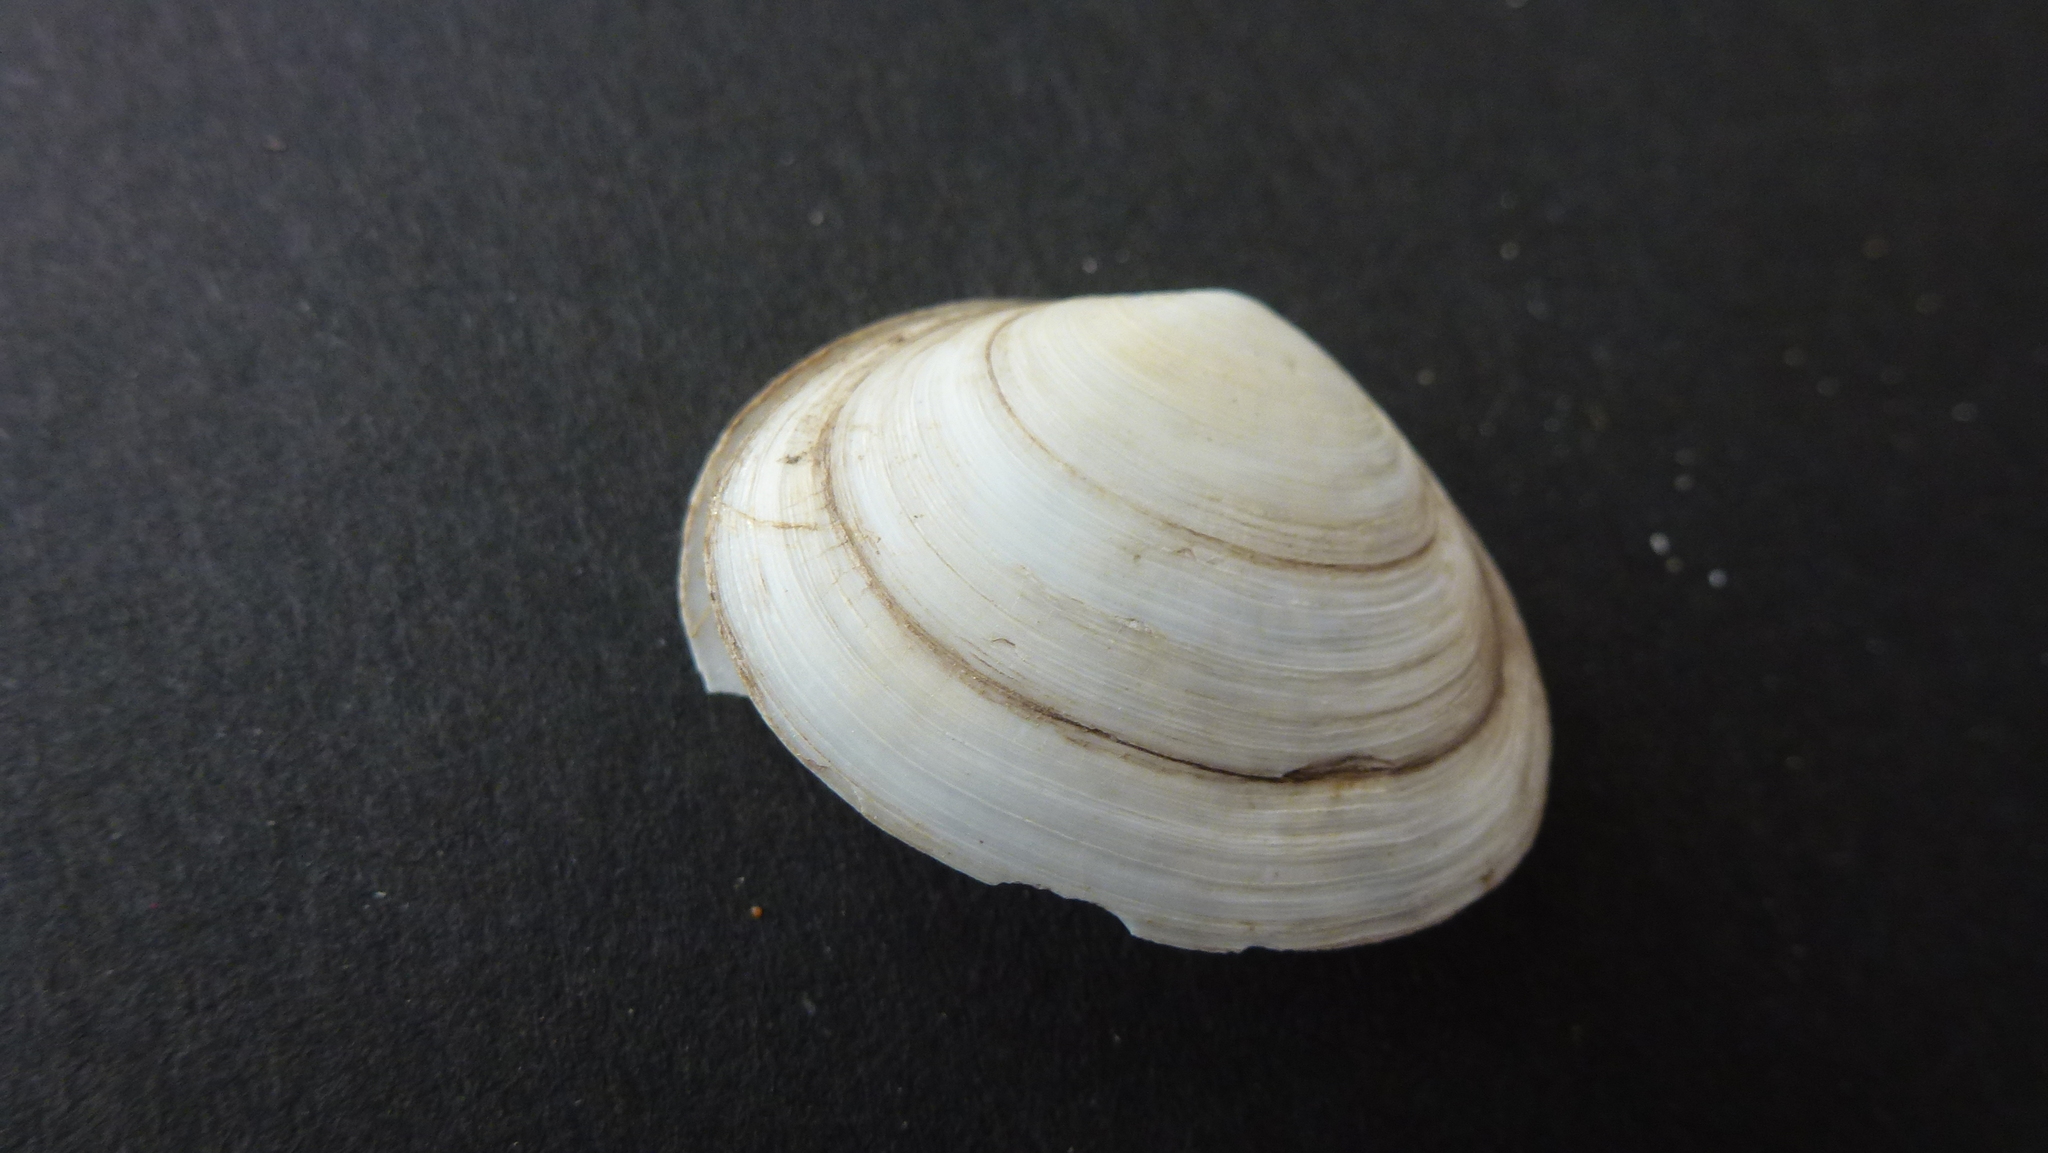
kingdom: Animalia
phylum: Mollusca
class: Bivalvia
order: Cardiida
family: Semelidae
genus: Scrobicularia
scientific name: Scrobicularia plana
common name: Peppery furrow shell
